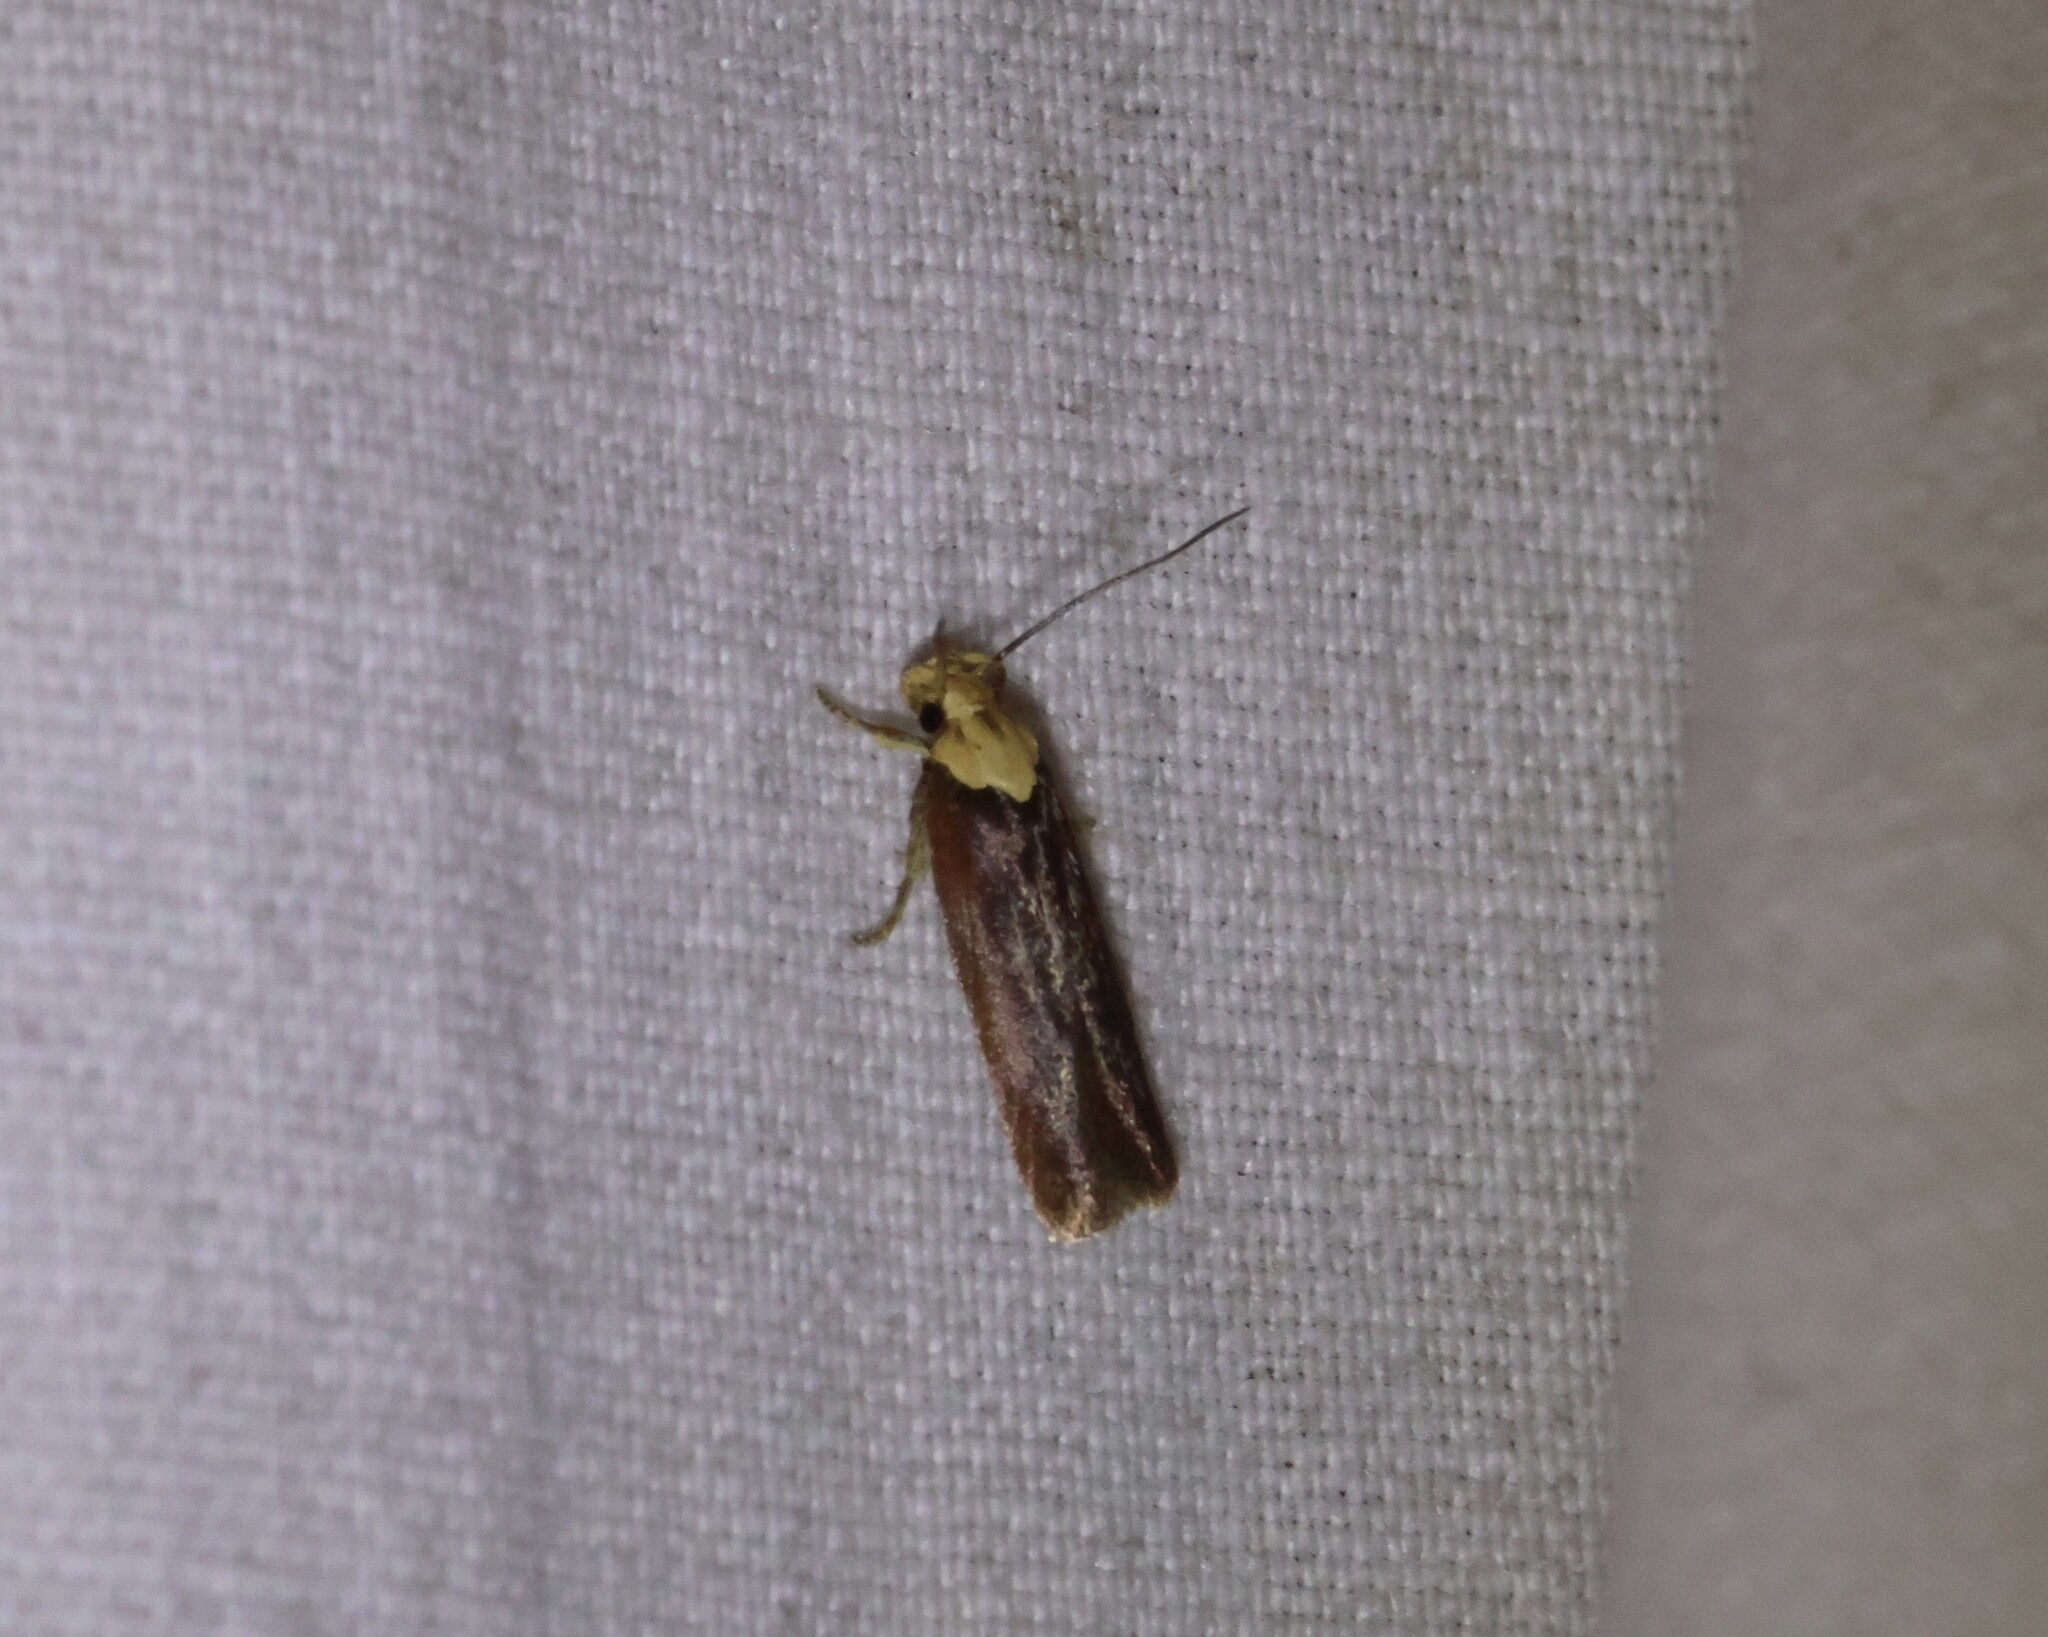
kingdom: Animalia
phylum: Arthropoda
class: Insecta
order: Lepidoptera
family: Depressariidae
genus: Depressaria
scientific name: Depressaria depressana
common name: Lost flat-body
